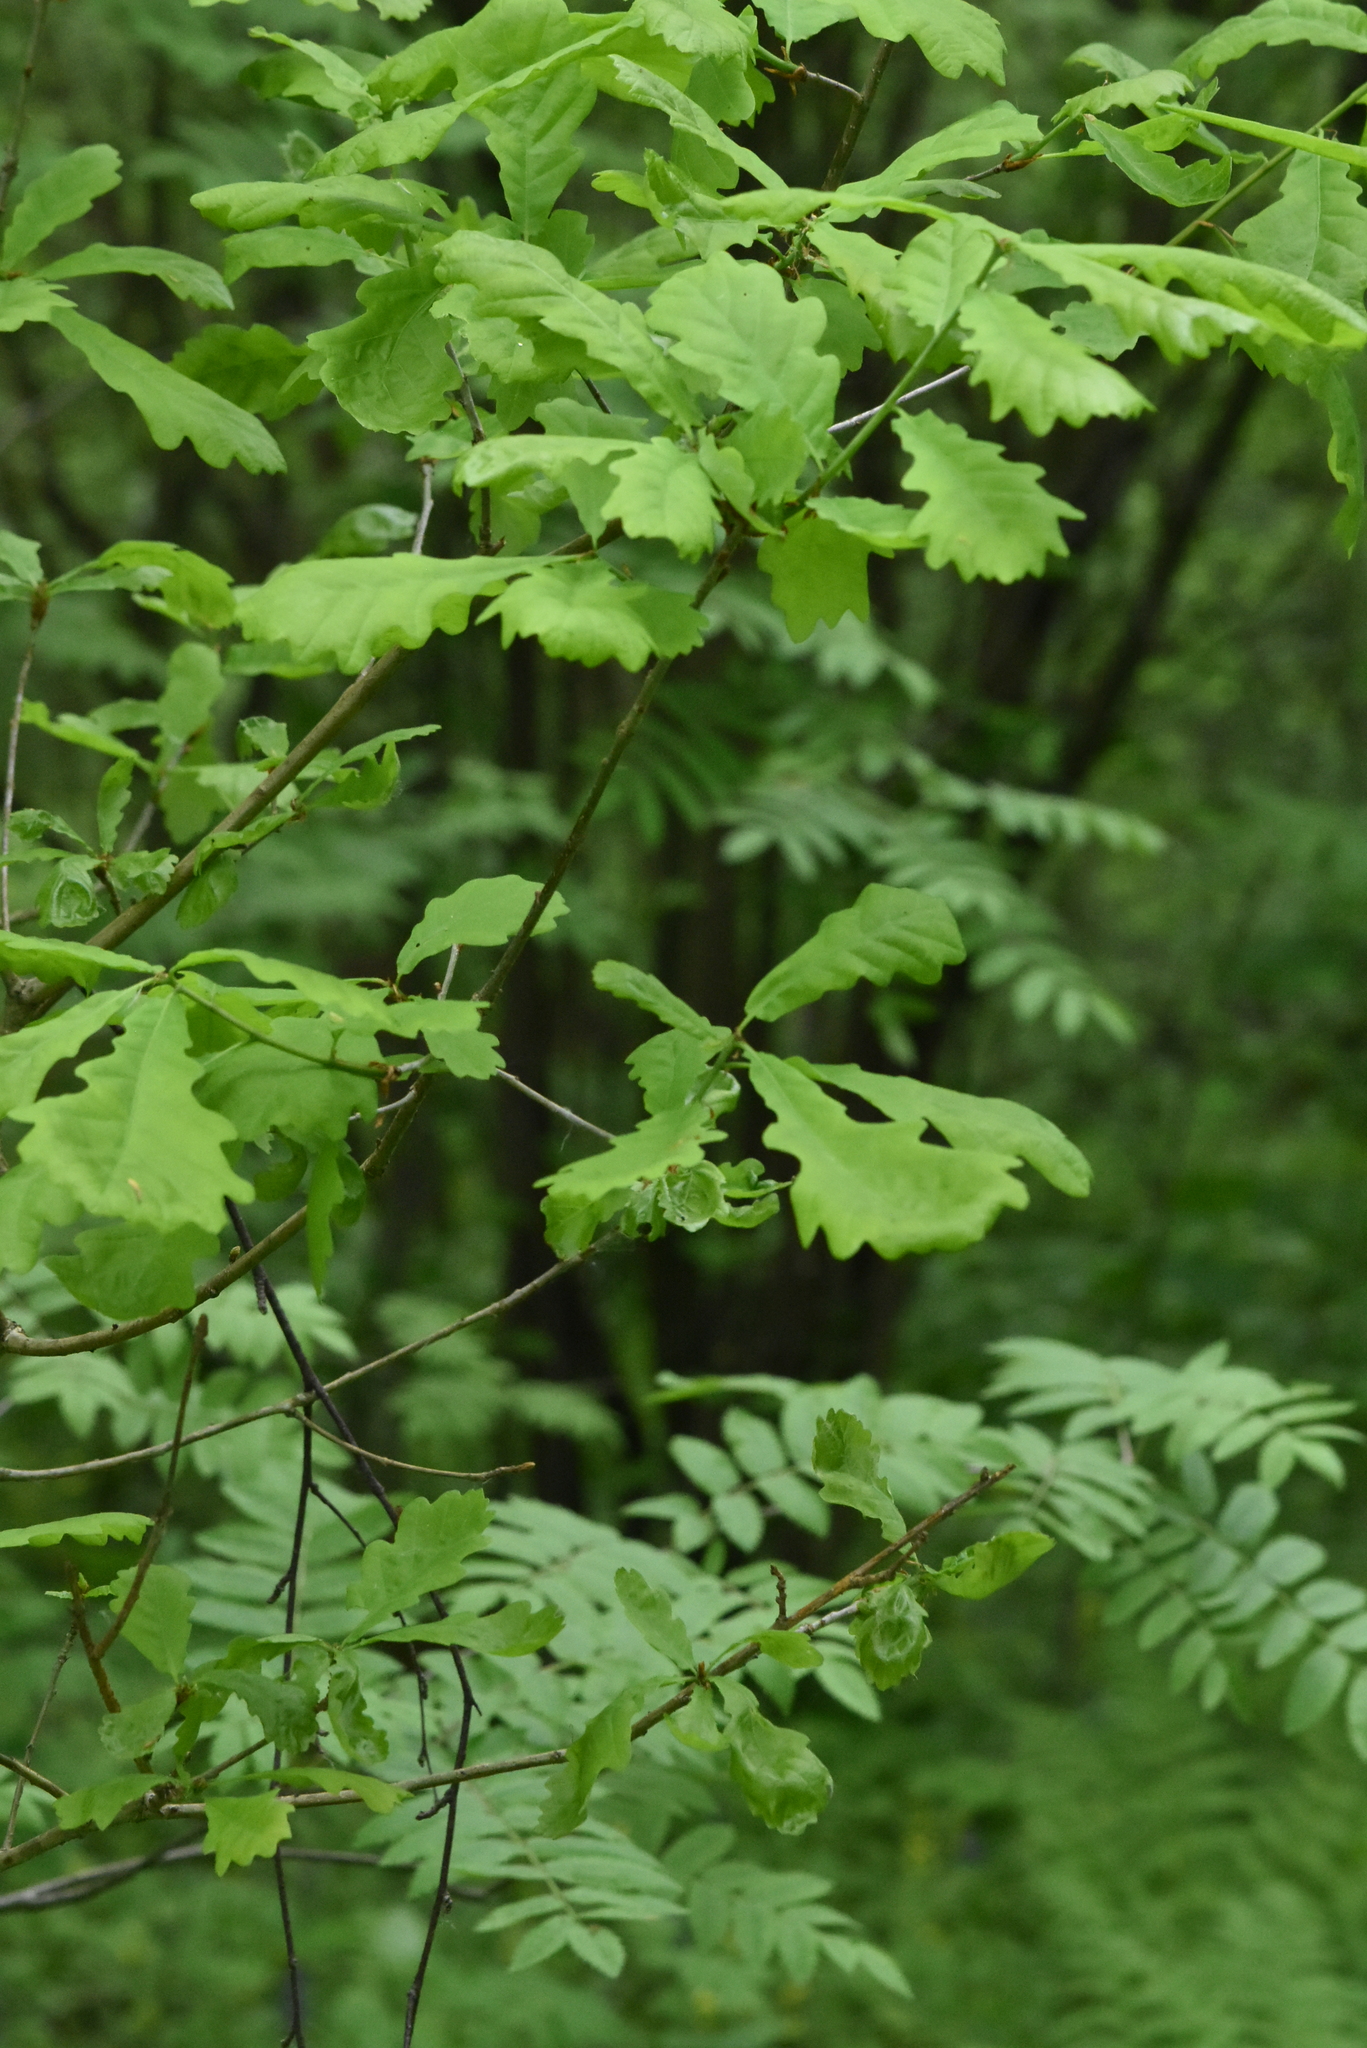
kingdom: Plantae
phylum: Tracheophyta
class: Magnoliopsida
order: Fagales
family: Fagaceae
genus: Quercus
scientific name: Quercus robur
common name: Pedunculate oak
